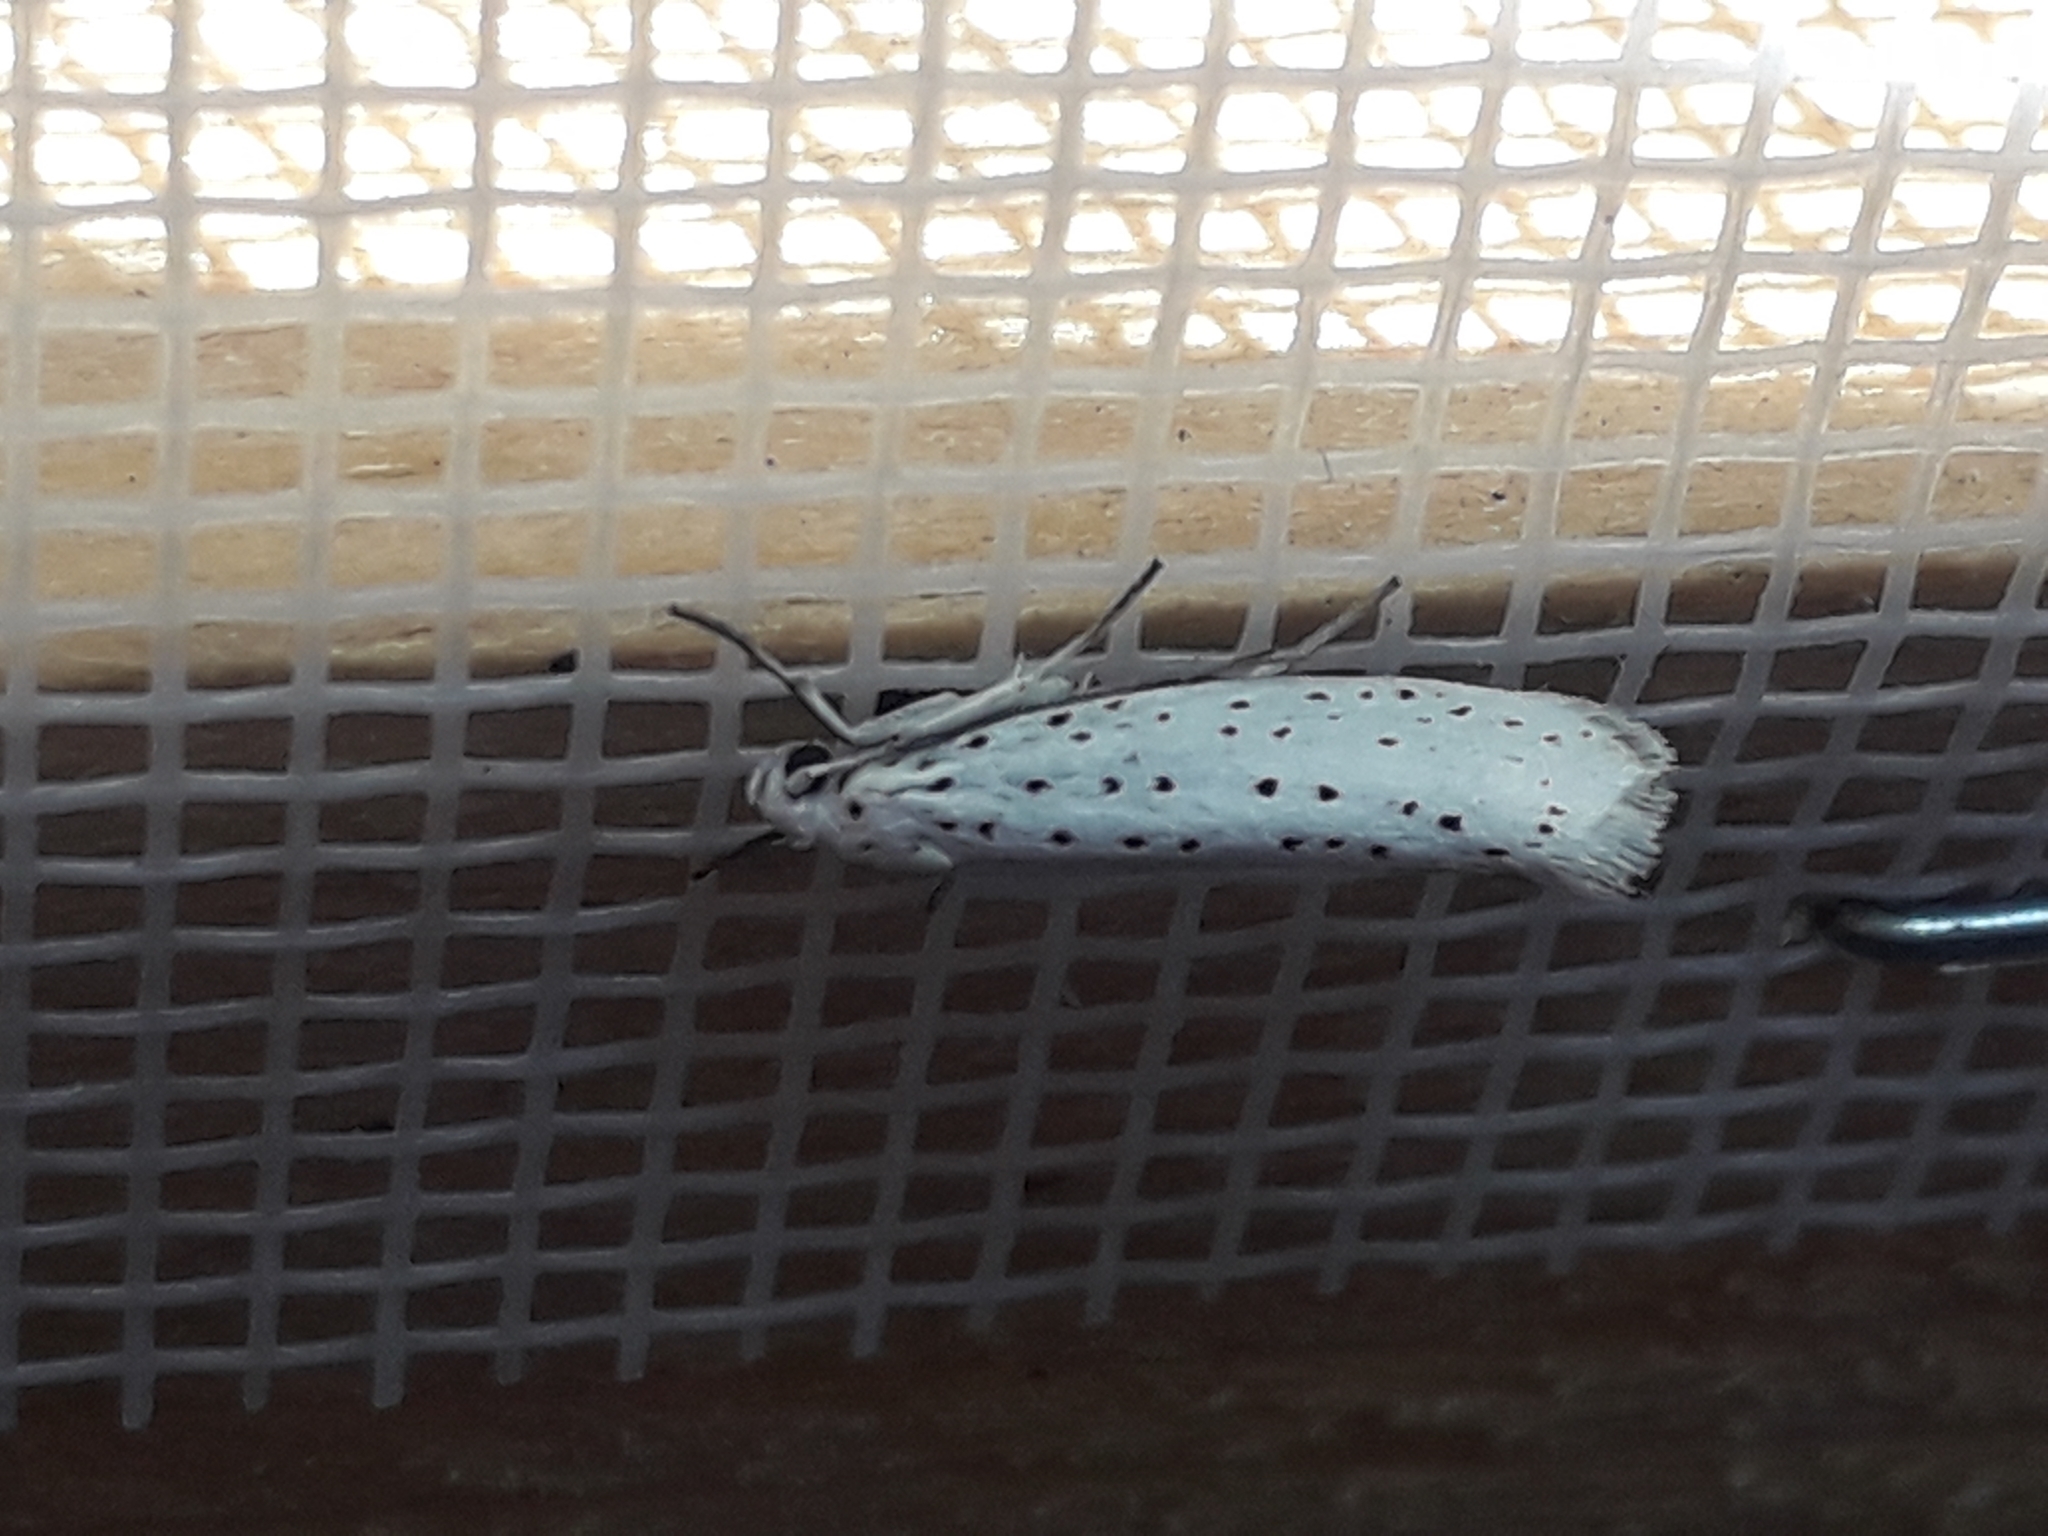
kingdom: Animalia
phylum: Arthropoda
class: Insecta
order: Lepidoptera
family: Yponomeutidae
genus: Yponomeuta
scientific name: Yponomeuta evonymella
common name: Bird-cherry ermine
